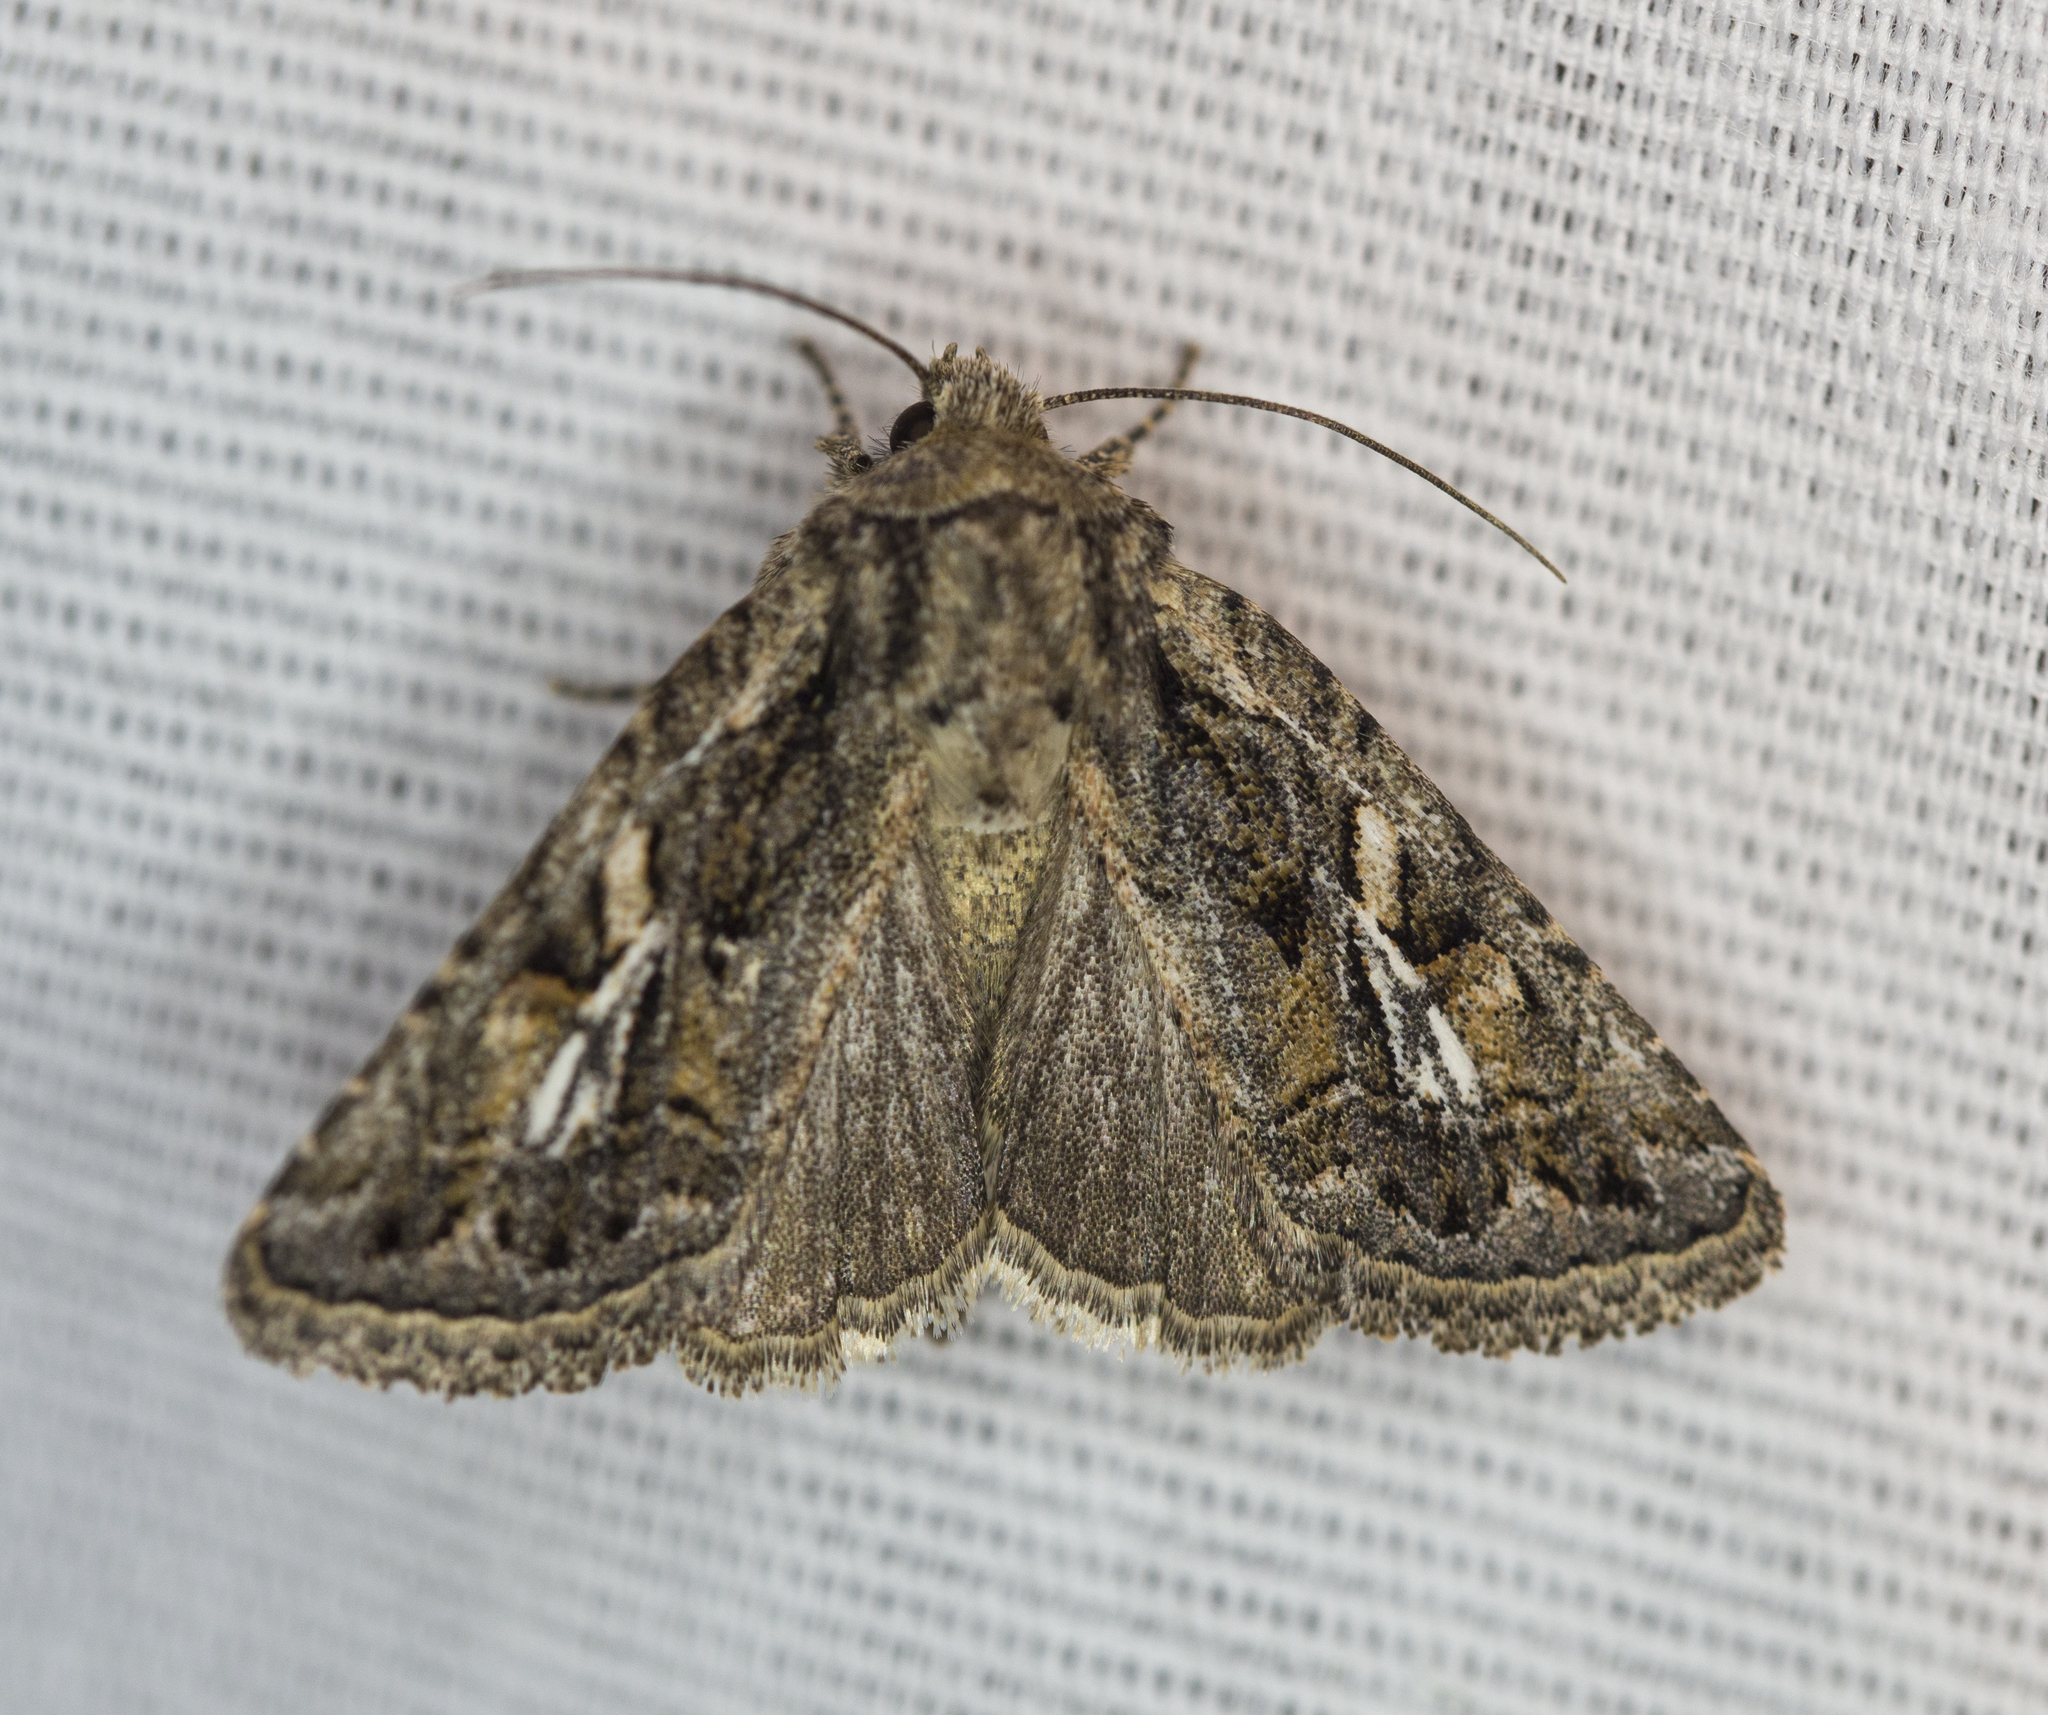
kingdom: Animalia
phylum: Arthropoda
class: Insecta
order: Lepidoptera
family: Noctuidae
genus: Ulolonche
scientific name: Ulolonche orbiculata
